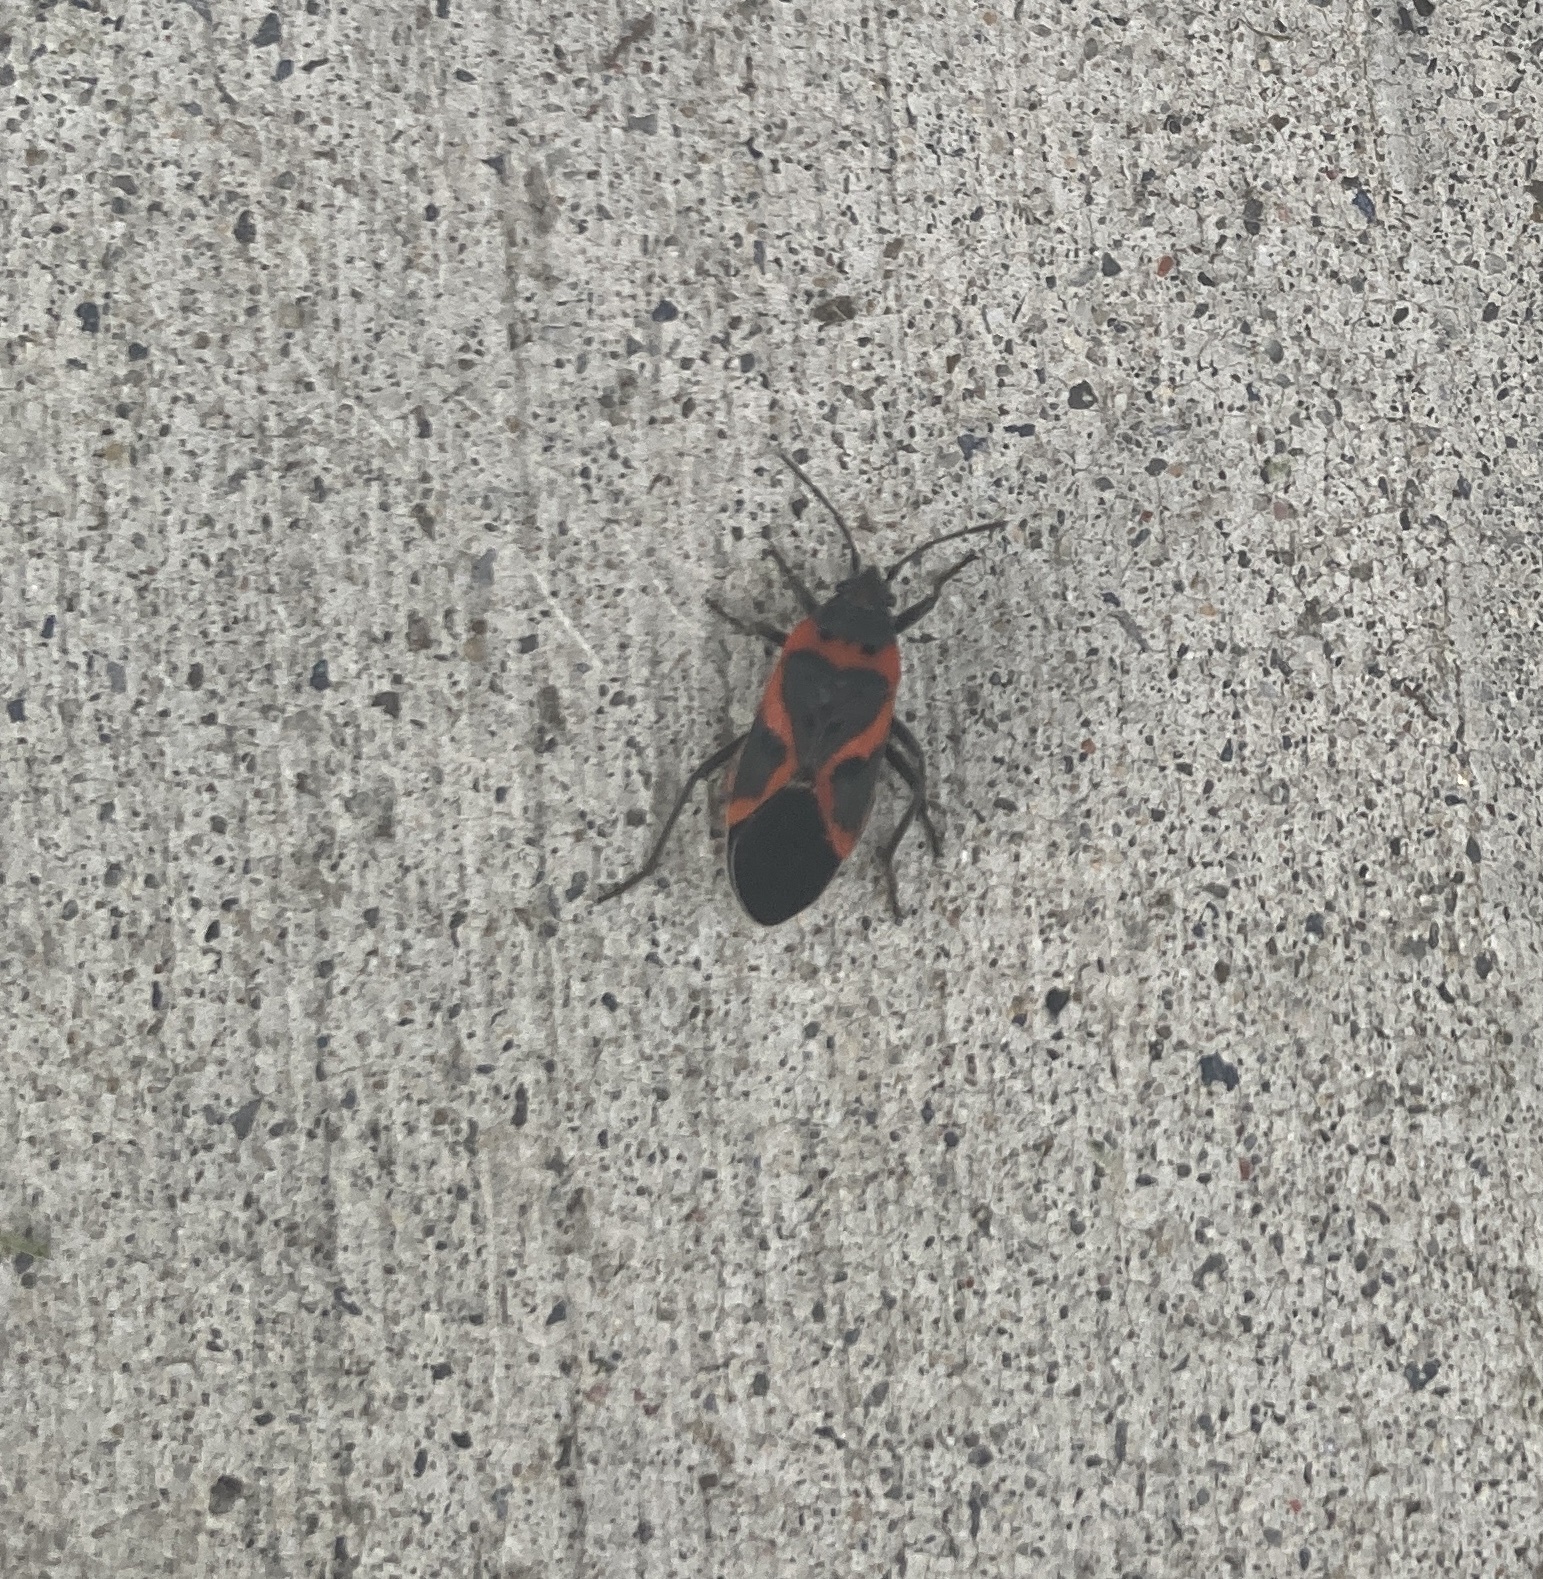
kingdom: Animalia
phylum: Arthropoda
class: Insecta
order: Hemiptera
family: Lygaeidae
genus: Lygaeus
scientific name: Lygaeus kalmii
